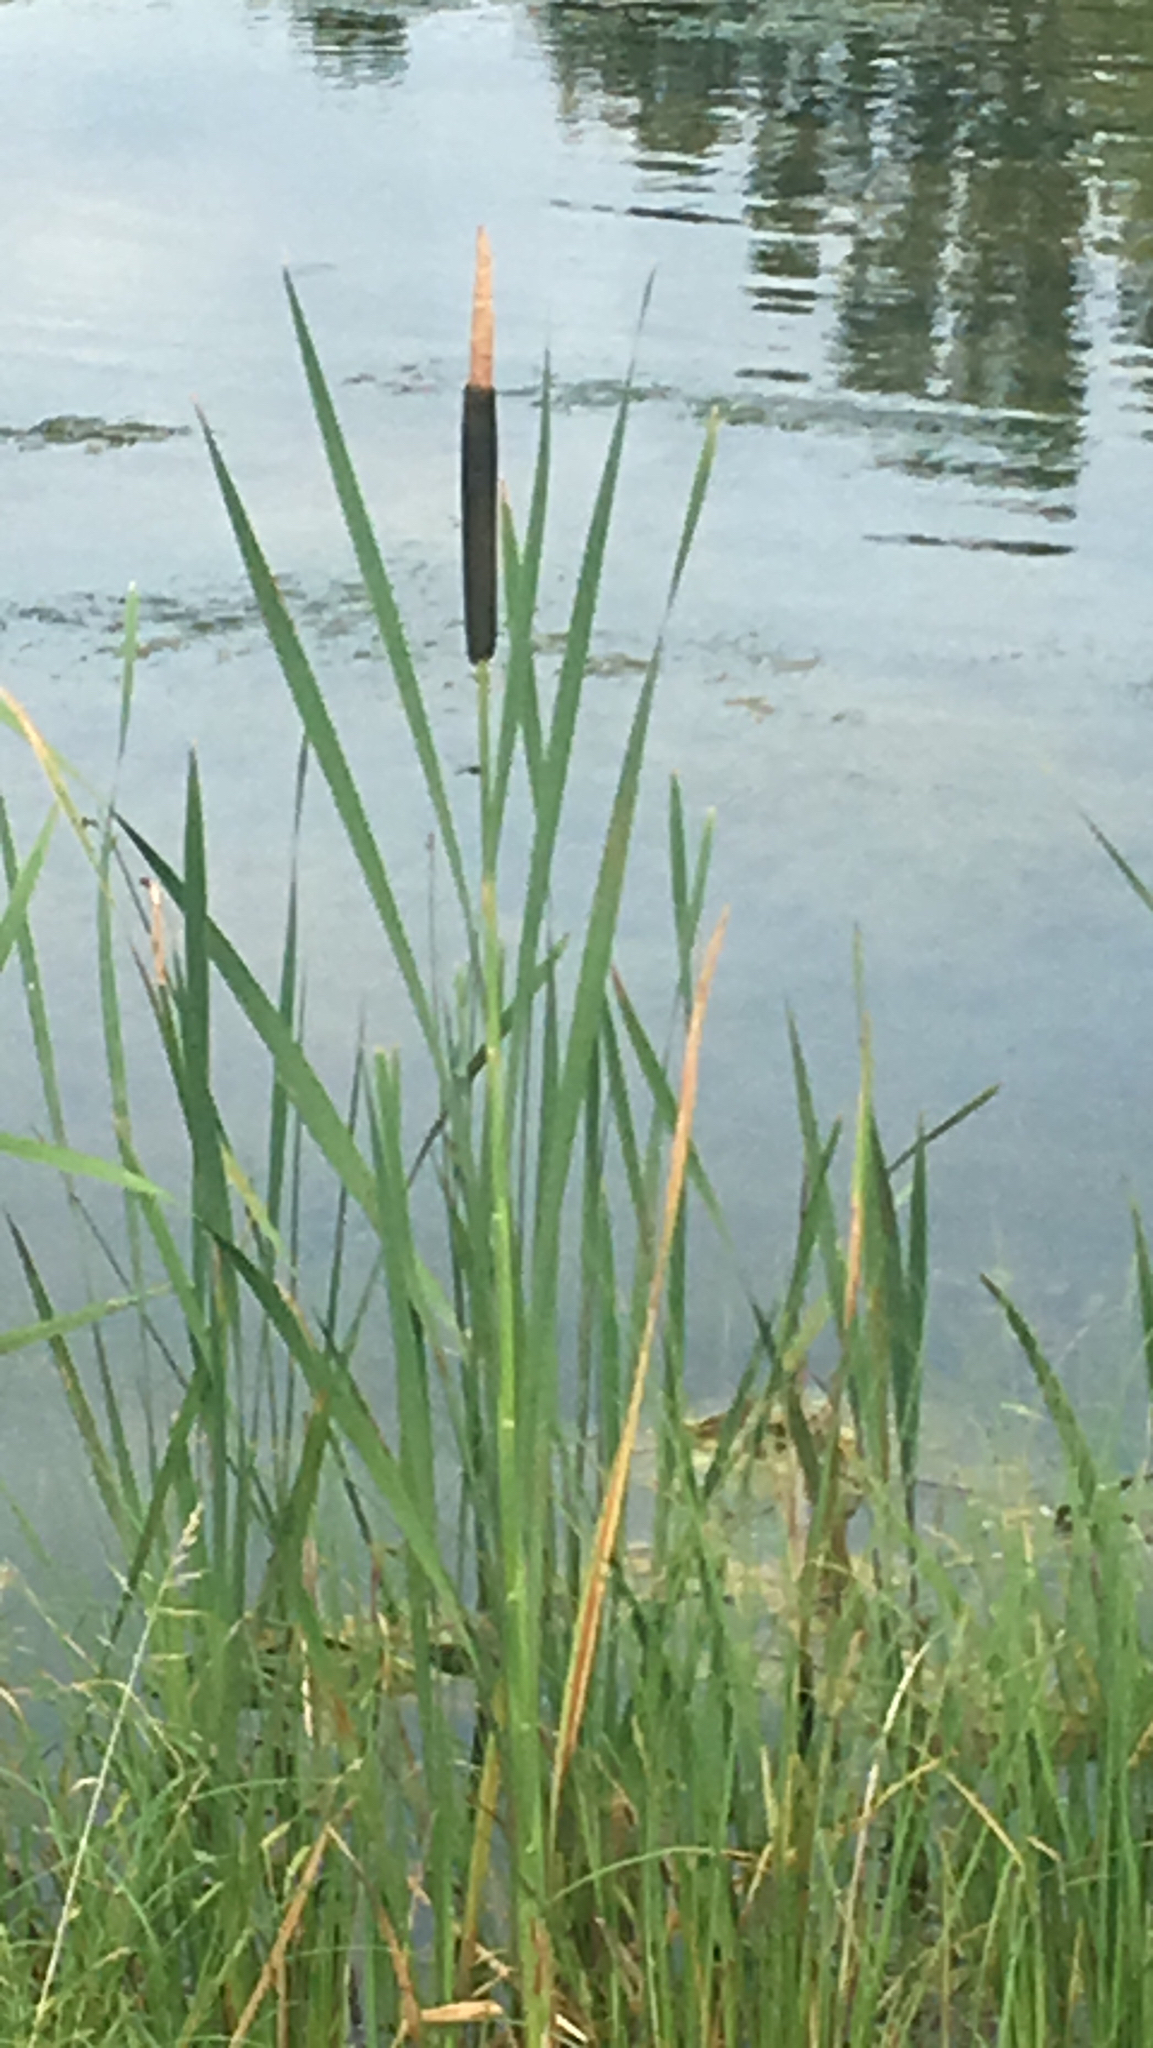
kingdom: Plantae
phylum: Tracheophyta
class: Liliopsida
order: Poales
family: Typhaceae
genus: Typha
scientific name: Typha latifolia
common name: Broadleaf cattail
